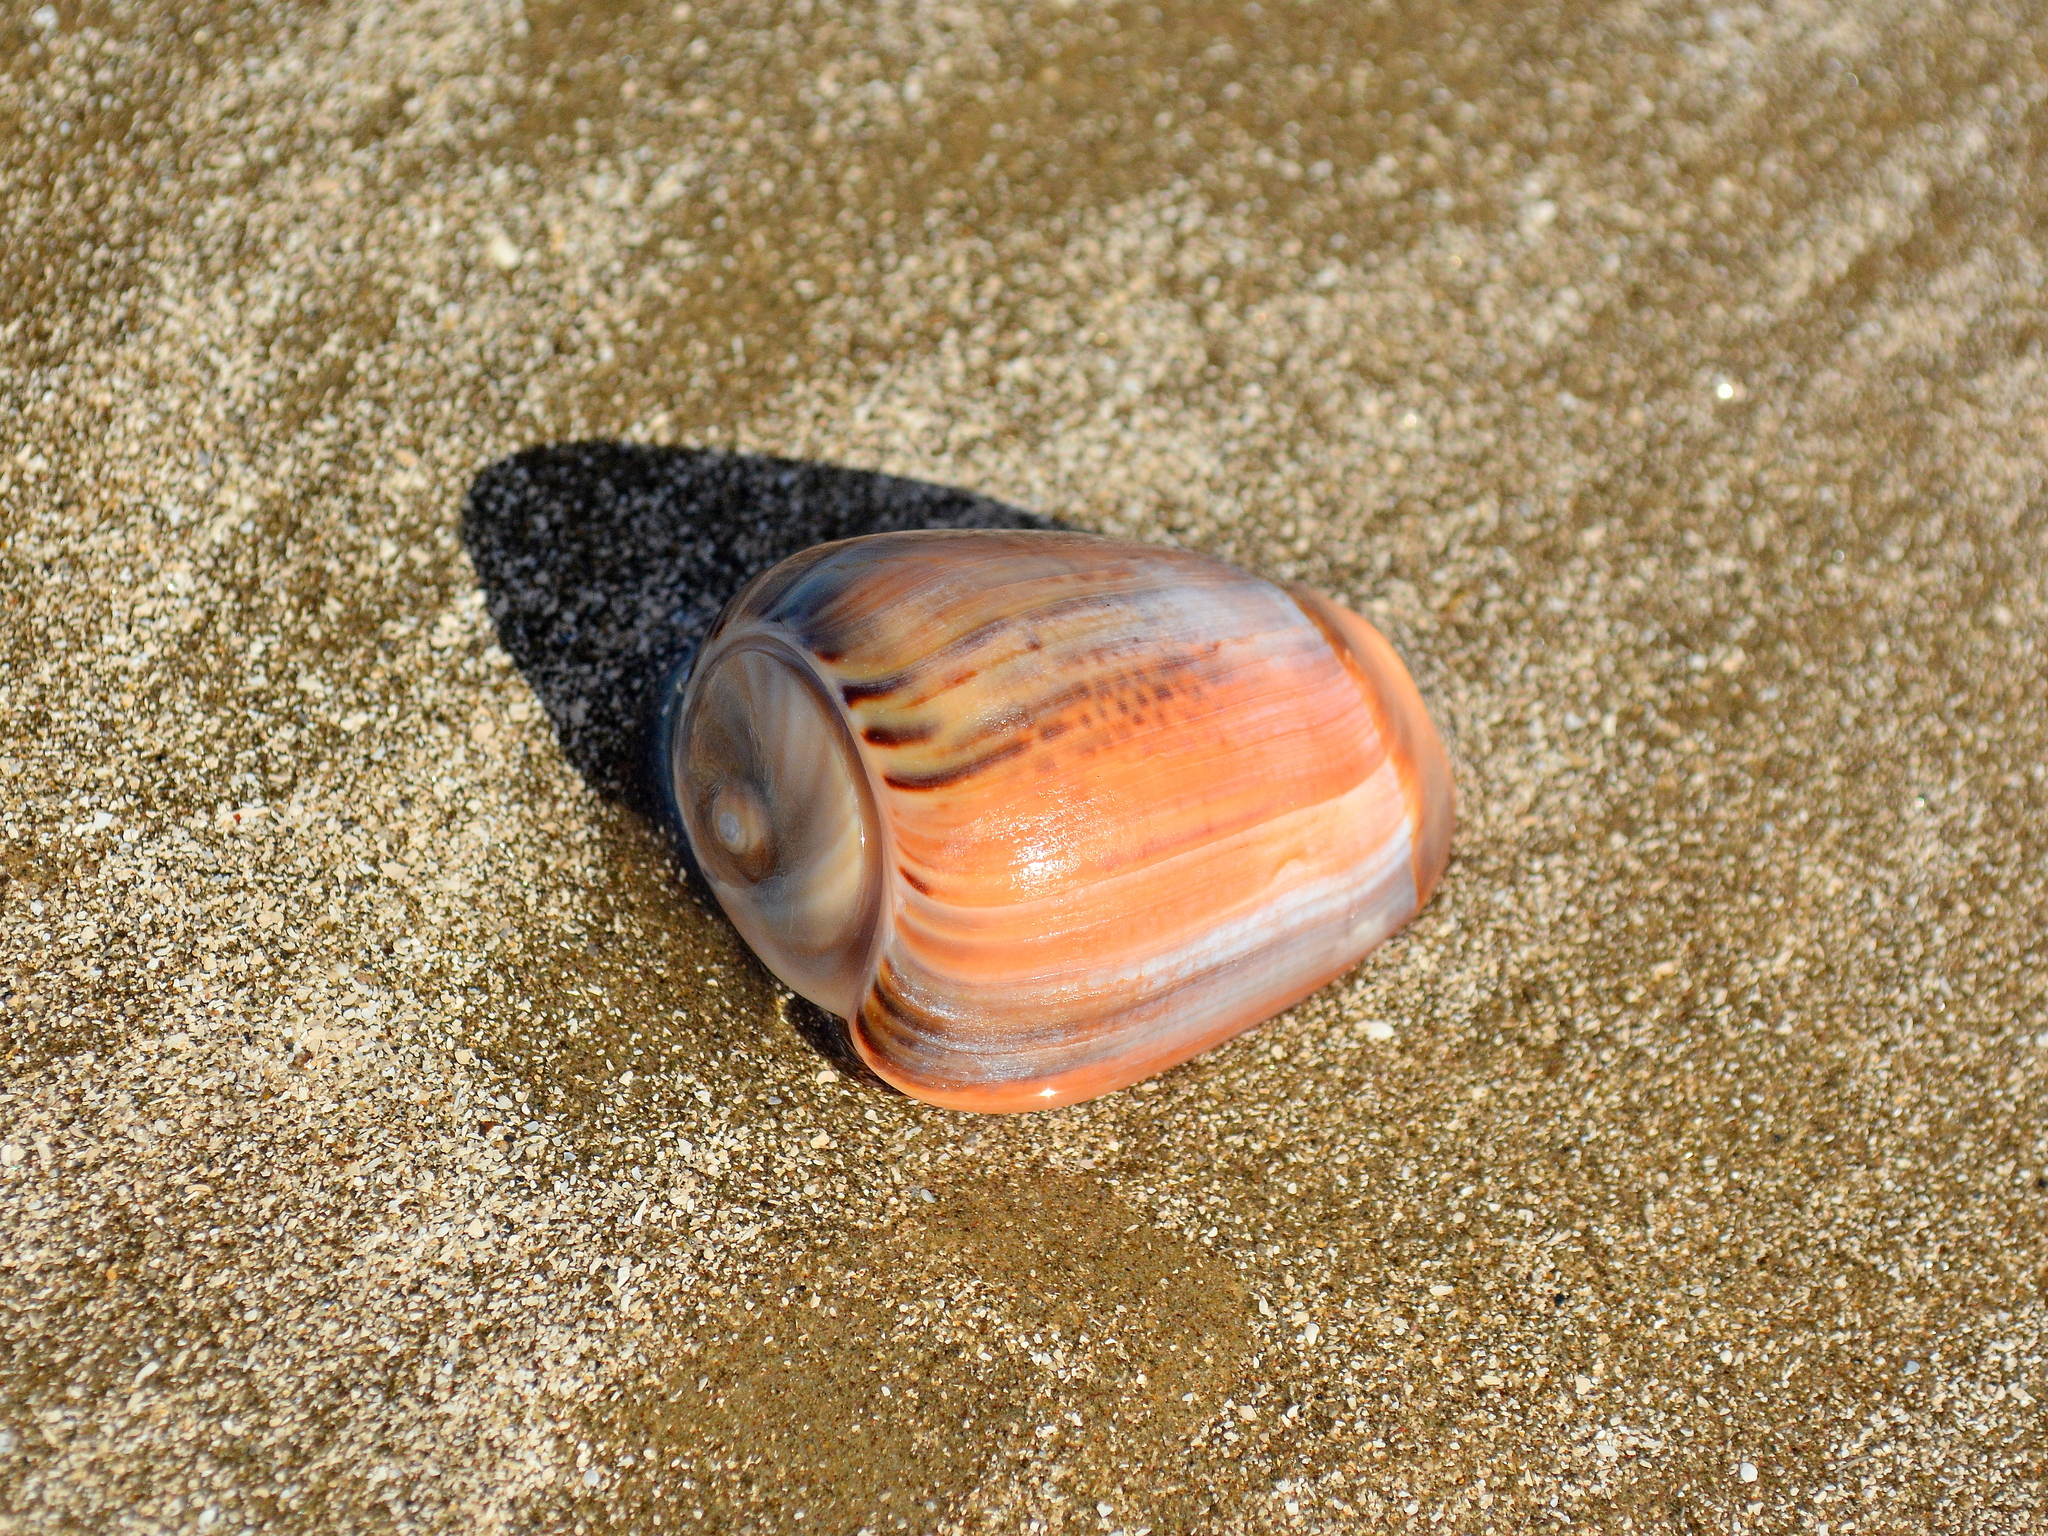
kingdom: Animalia
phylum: Mollusca
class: Gastropoda
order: Neogastropoda
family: Olividae
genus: Olivancillaria
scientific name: Olivancillaria urceus
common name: Bear ancilla
